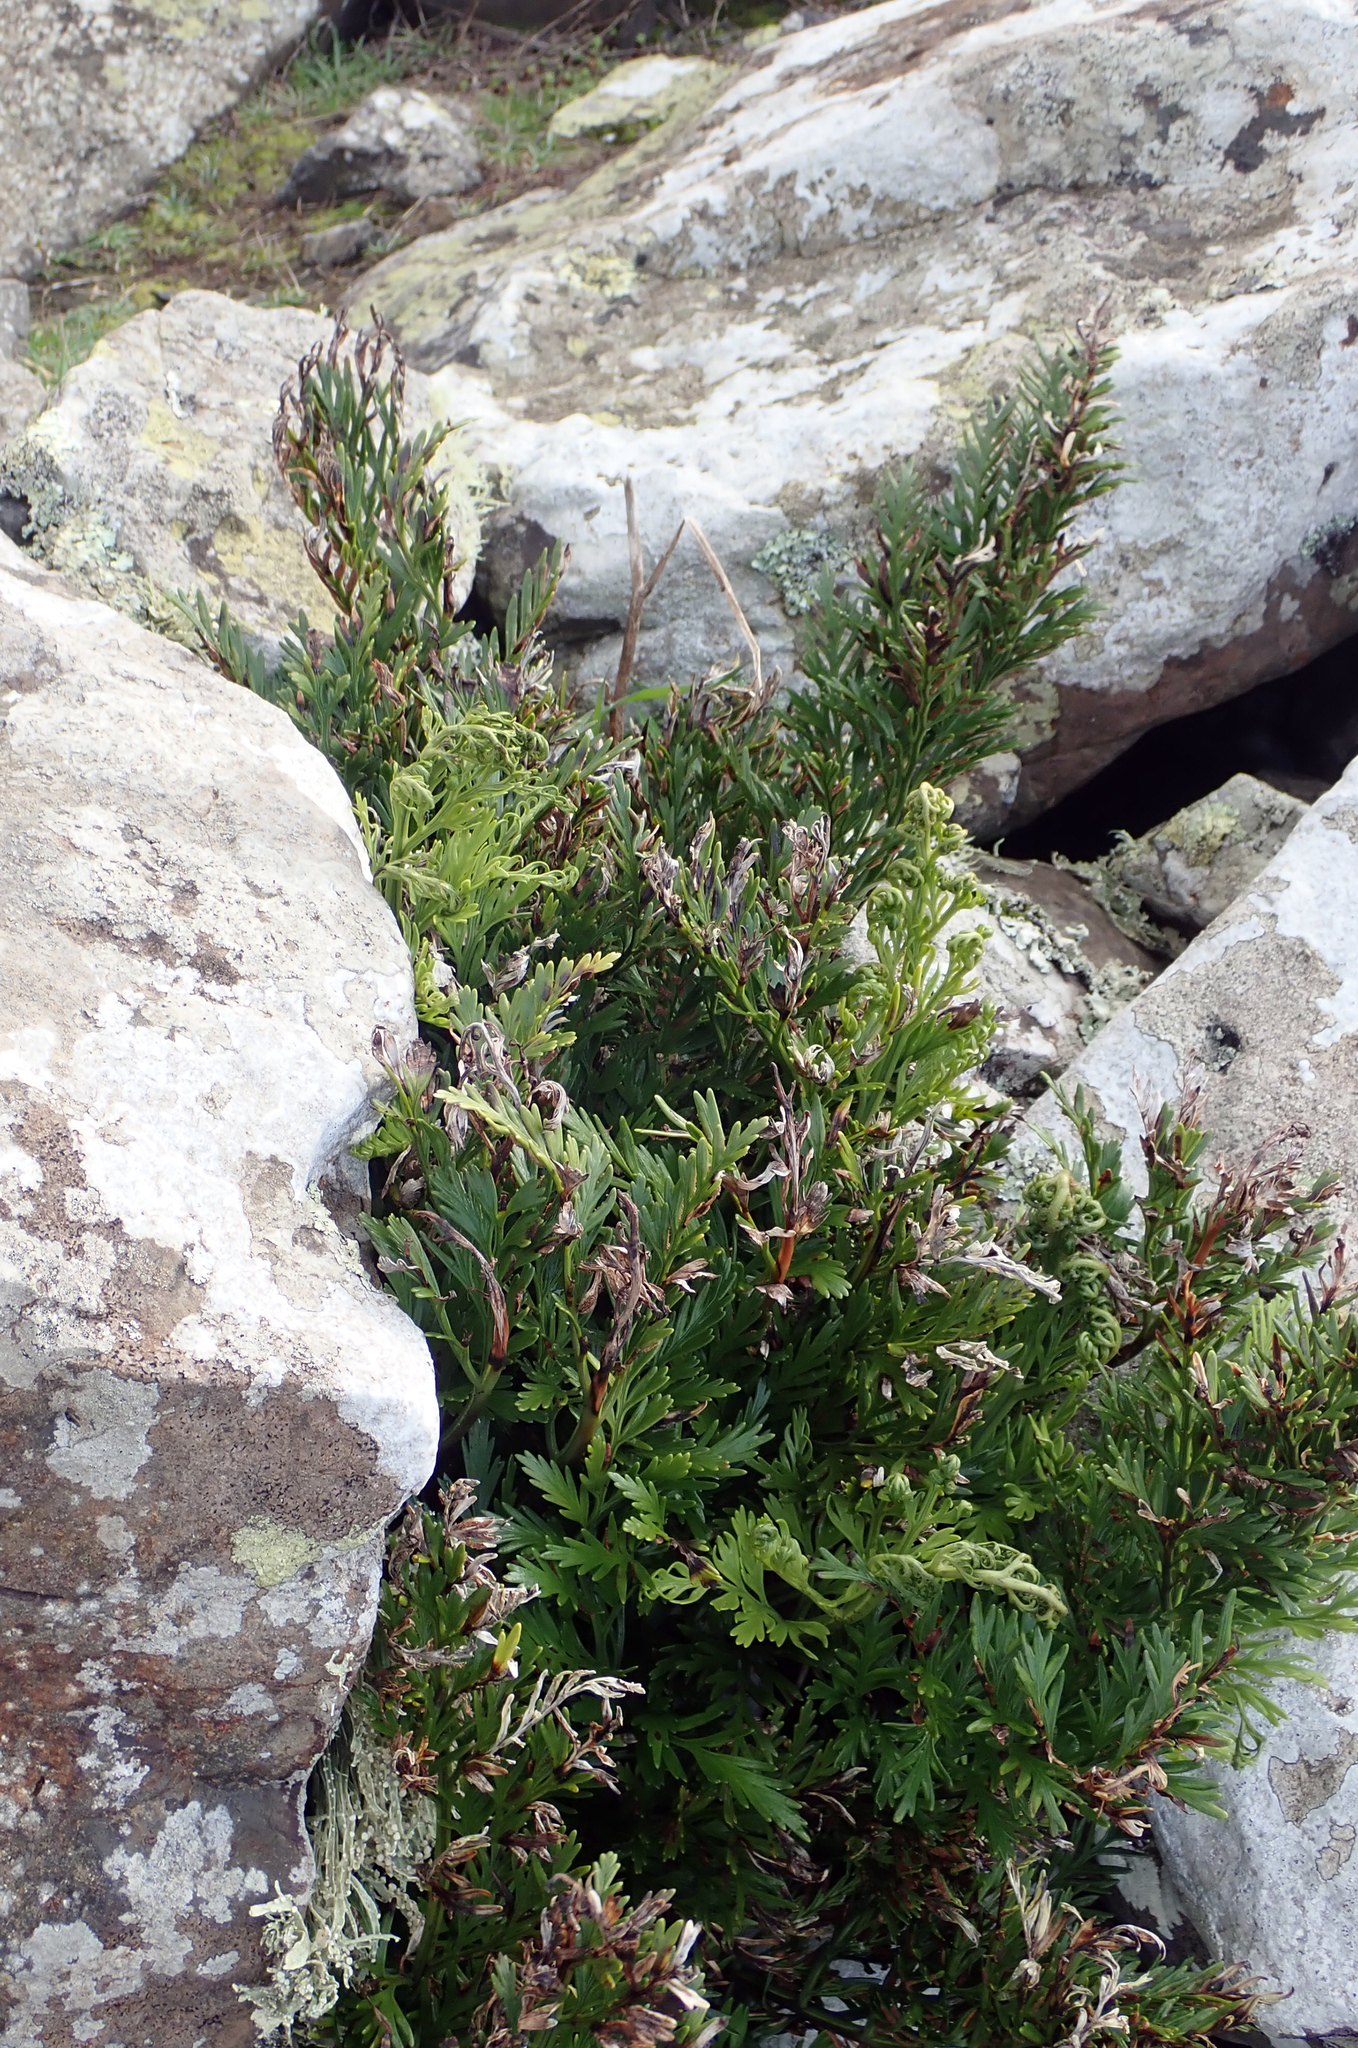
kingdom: Plantae
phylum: Tracheophyta
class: Polypodiopsida
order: Polypodiales
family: Aspleniaceae
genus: Asplenium
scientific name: Asplenium chathamense
